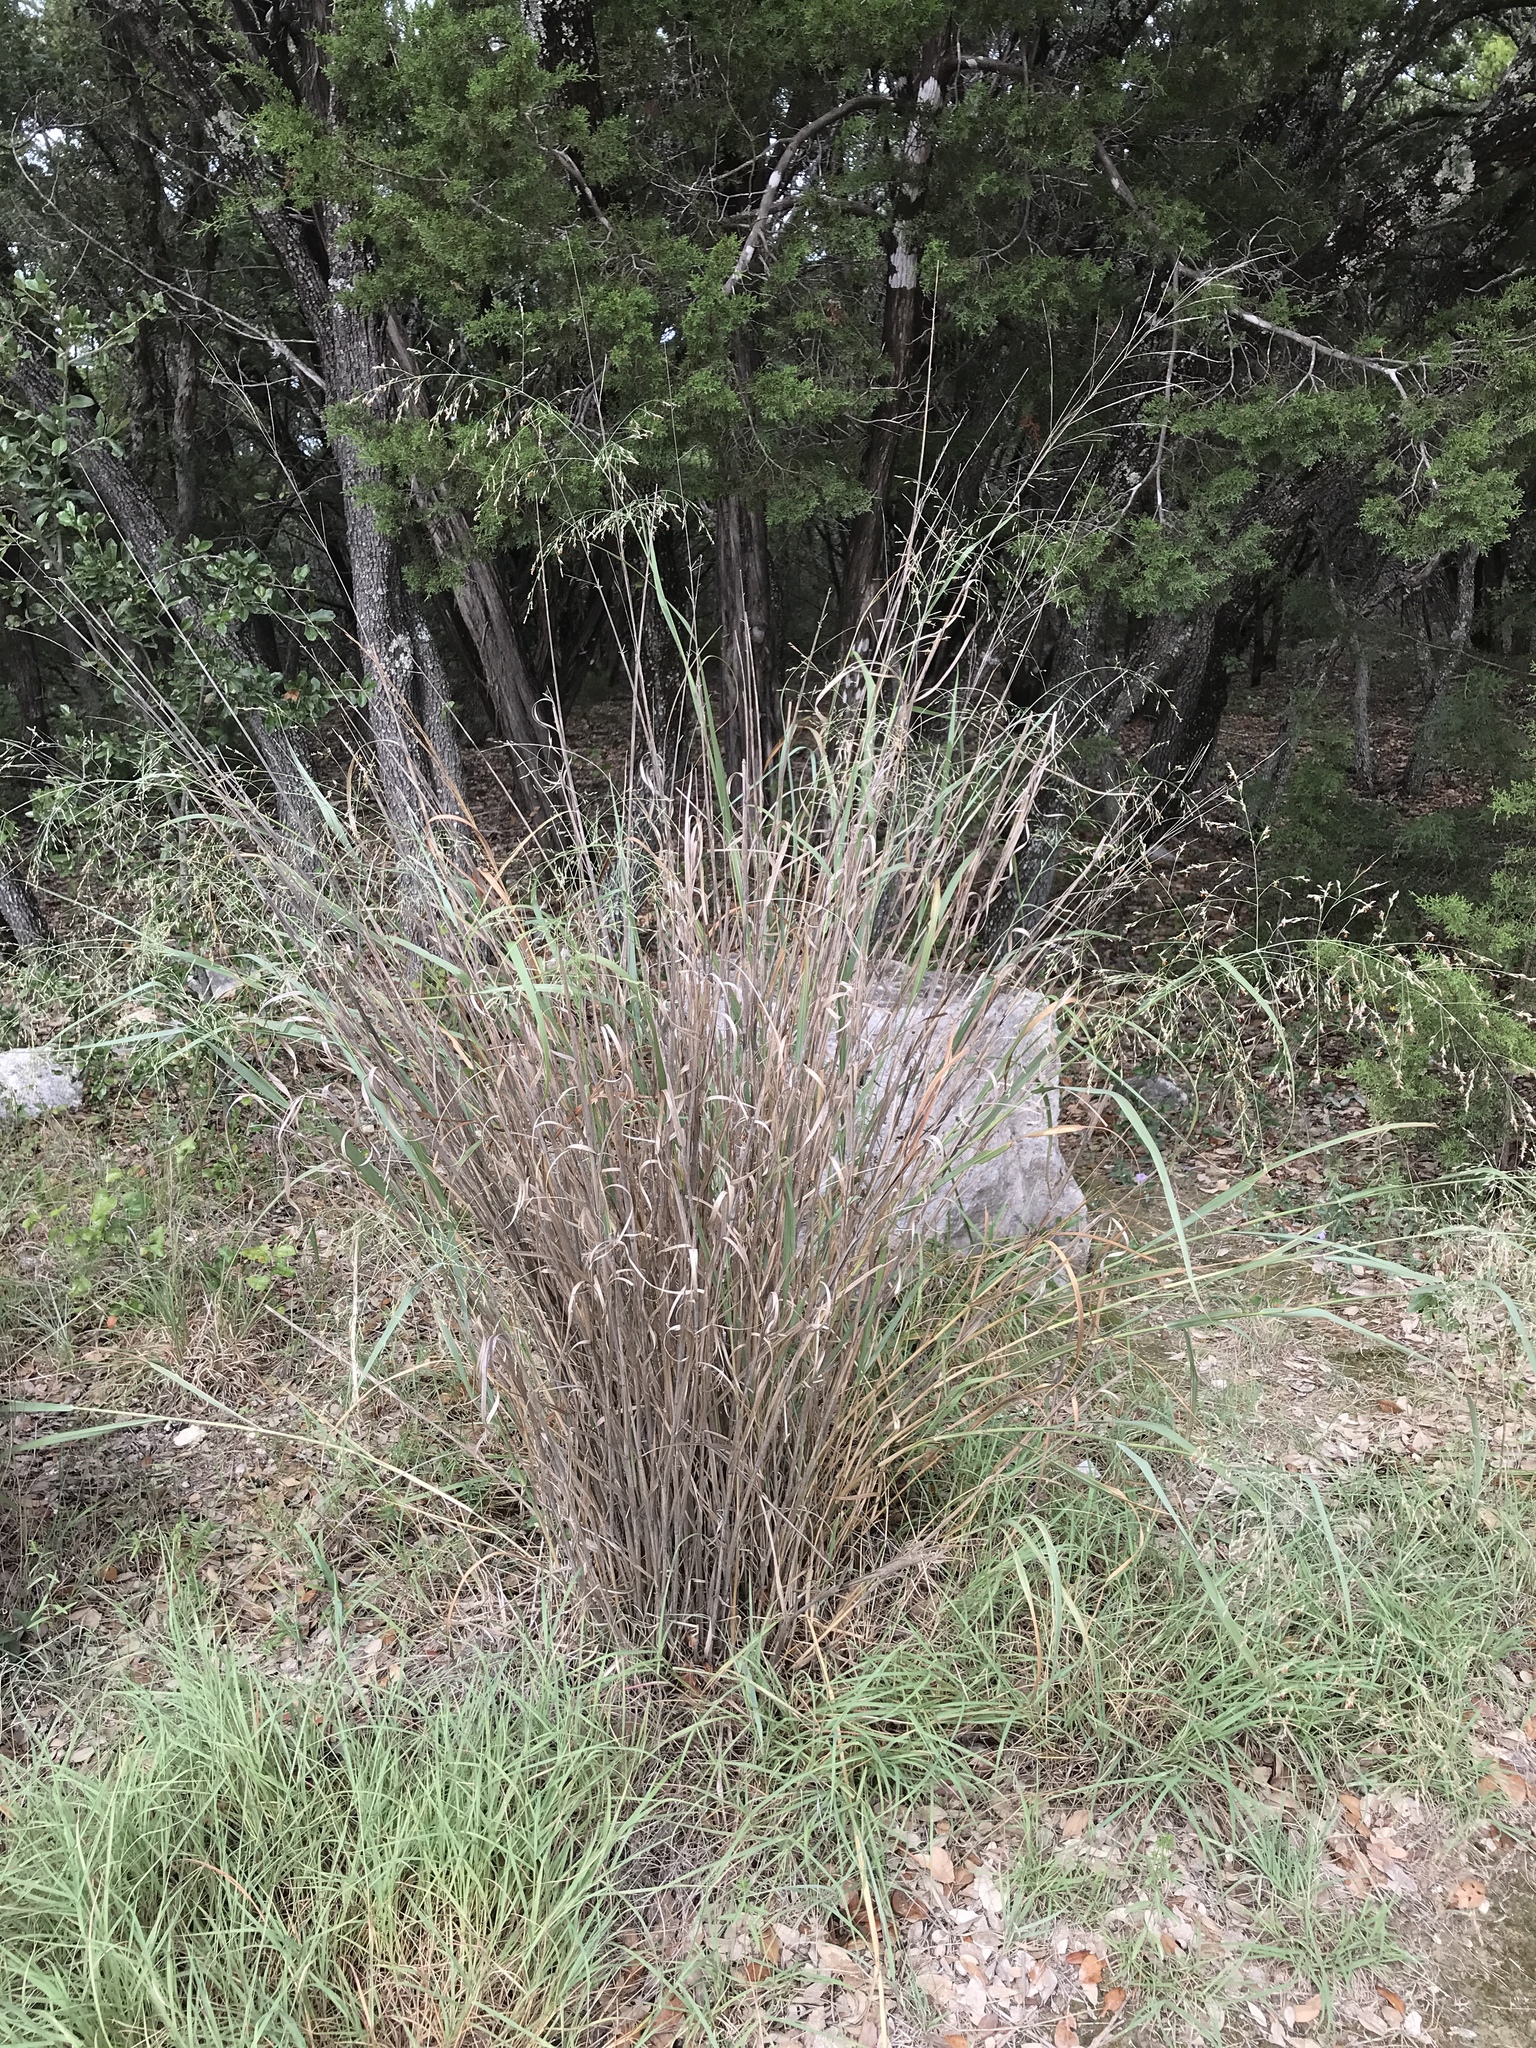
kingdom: Plantae
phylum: Tracheophyta
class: Liliopsida
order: Poales
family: Poaceae
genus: Panicum
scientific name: Panicum virgatum
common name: Switchgrass
